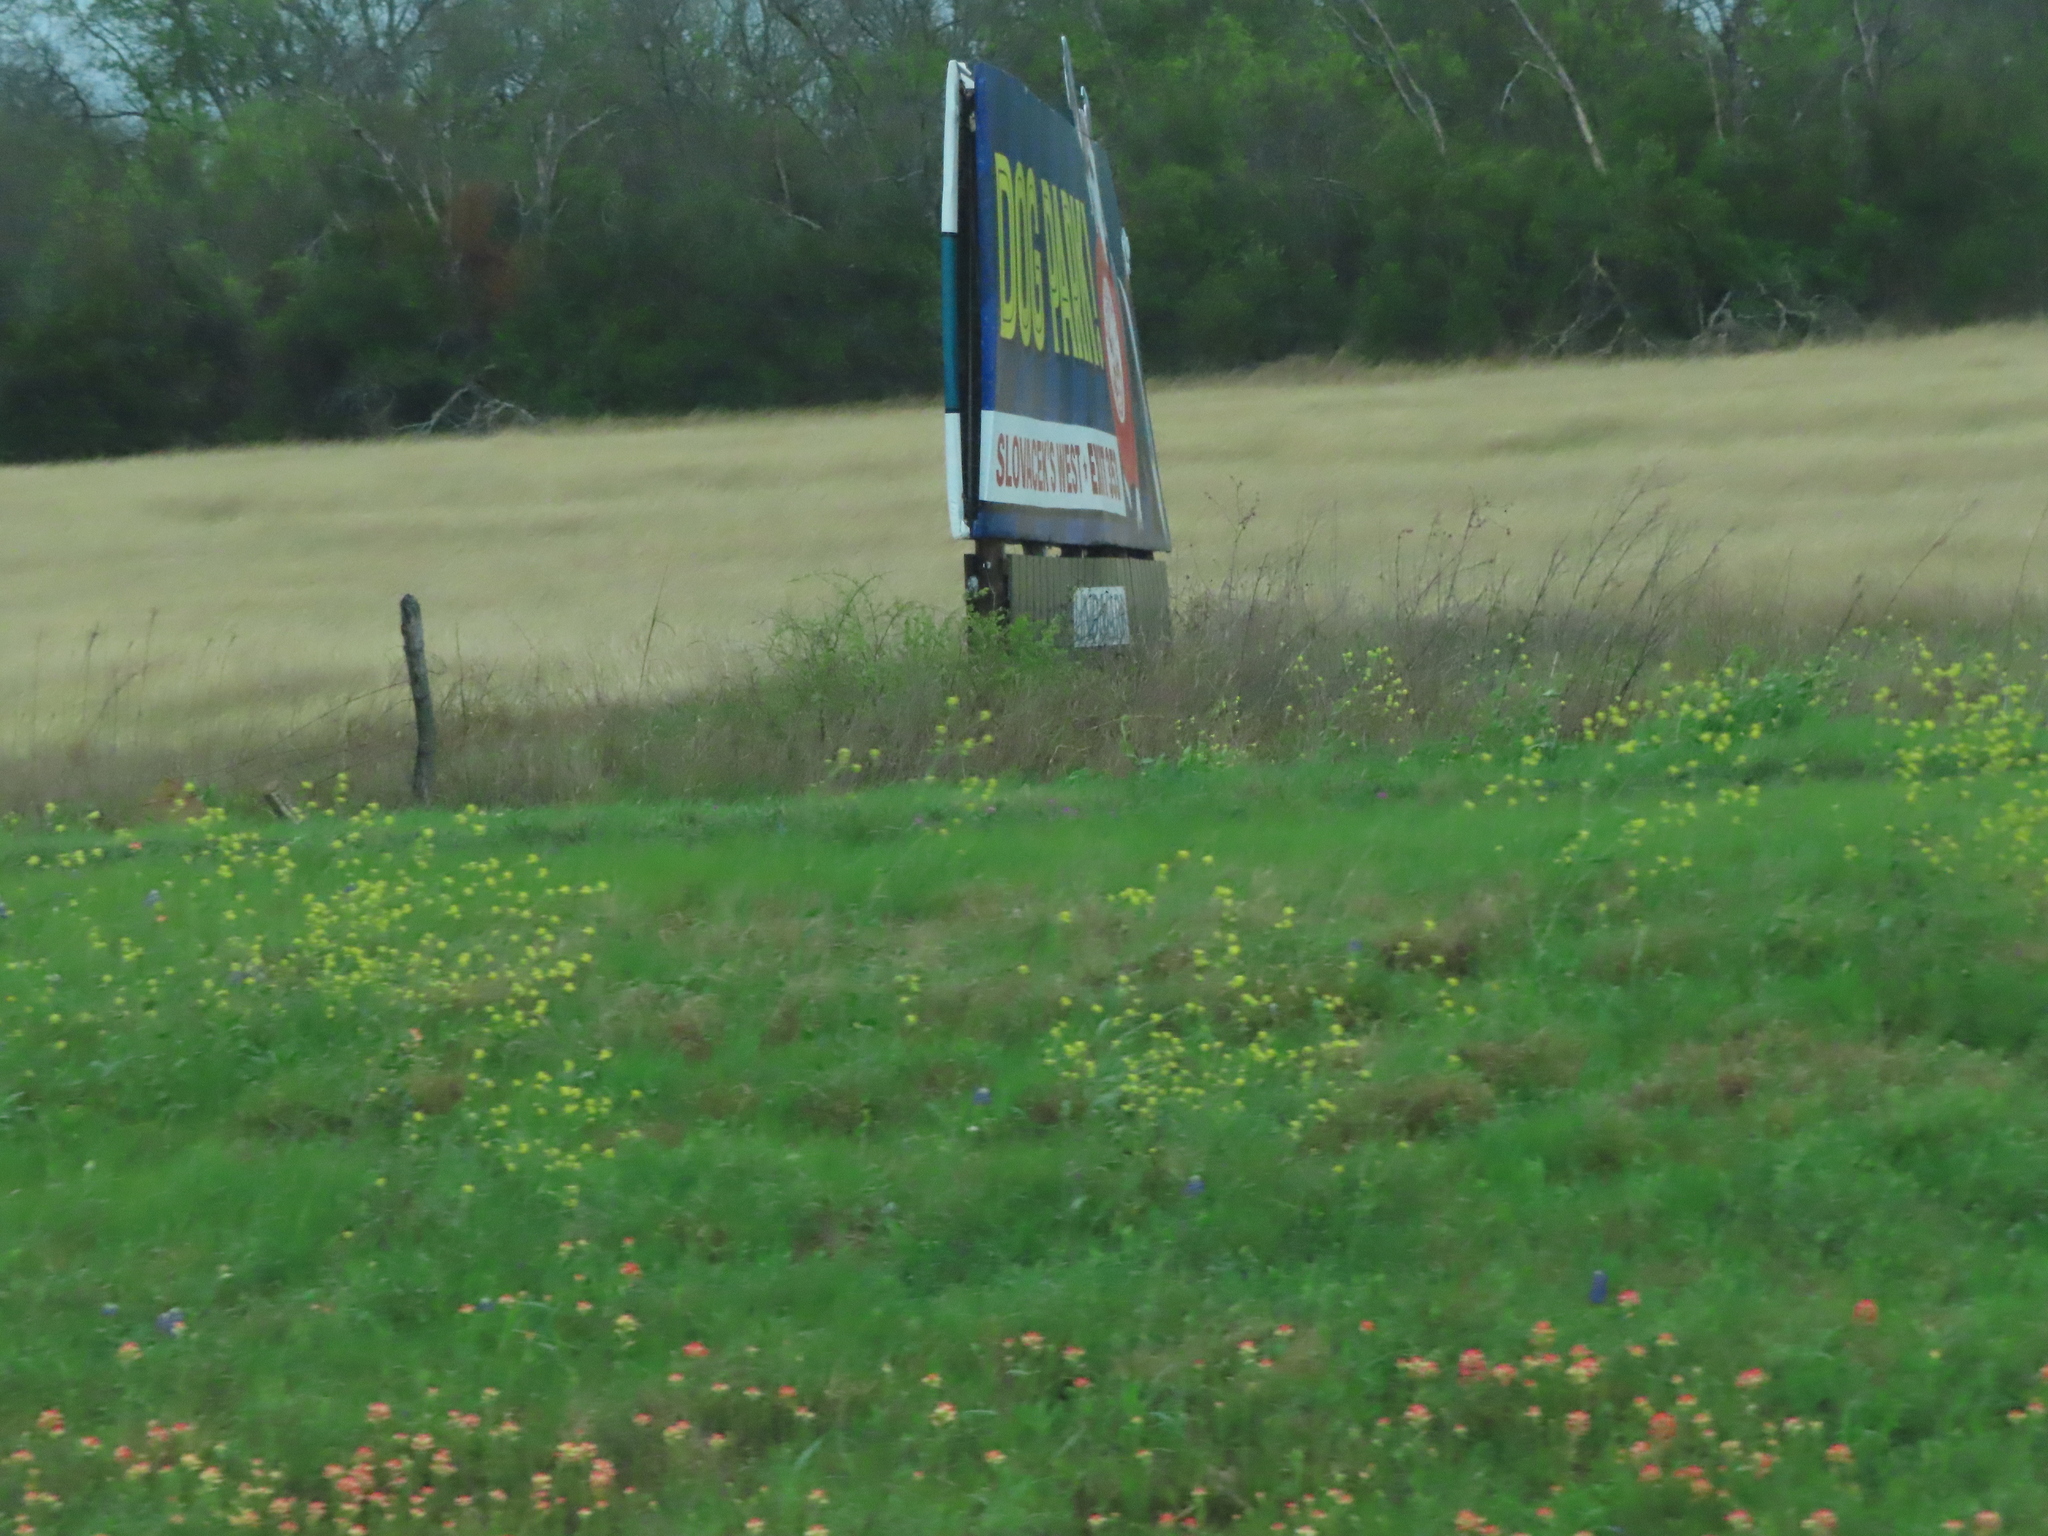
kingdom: Plantae
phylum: Tracheophyta
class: Magnoliopsida
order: Brassicales
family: Brassicaceae
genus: Rapistrum
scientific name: Rapistrum rugosum
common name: Annual bastardcabbage
